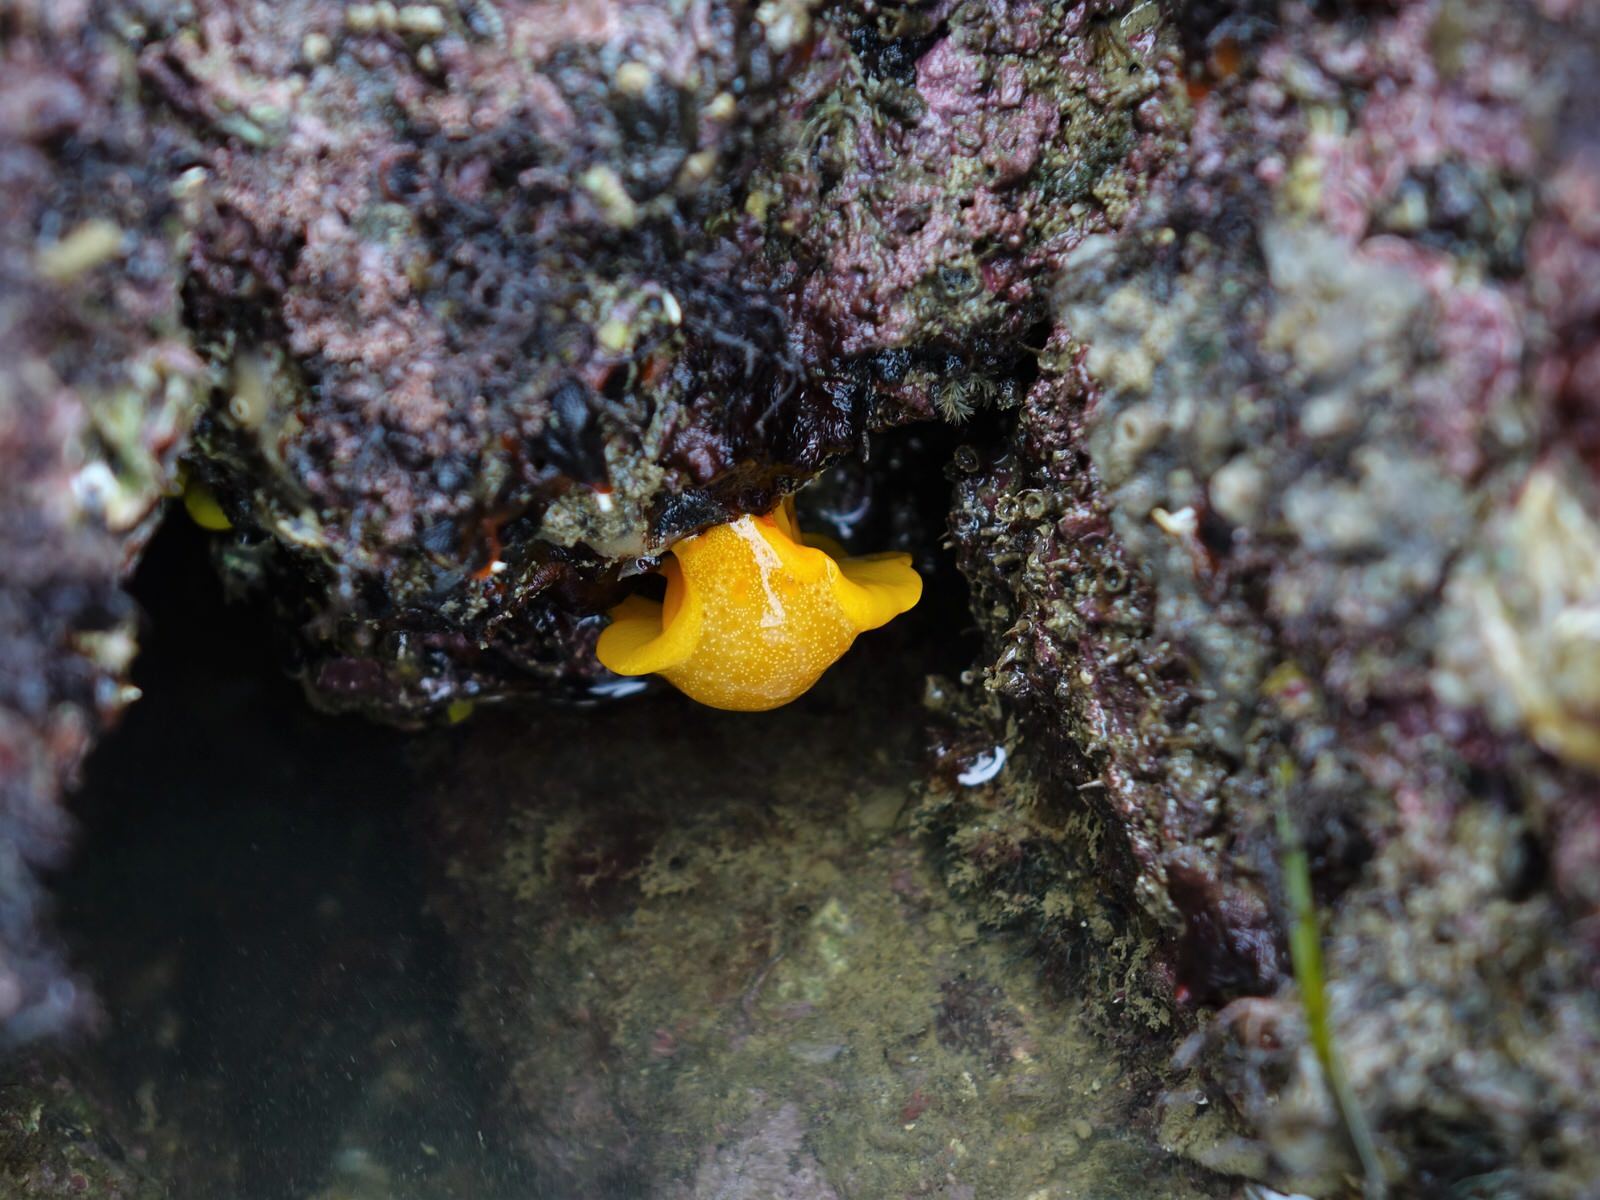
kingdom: Animalia
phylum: Mollusca
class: Gastropoda
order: Nudibranchia
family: Dendrodorididae
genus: Dendrodoris
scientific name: Dendrodoris citrina
